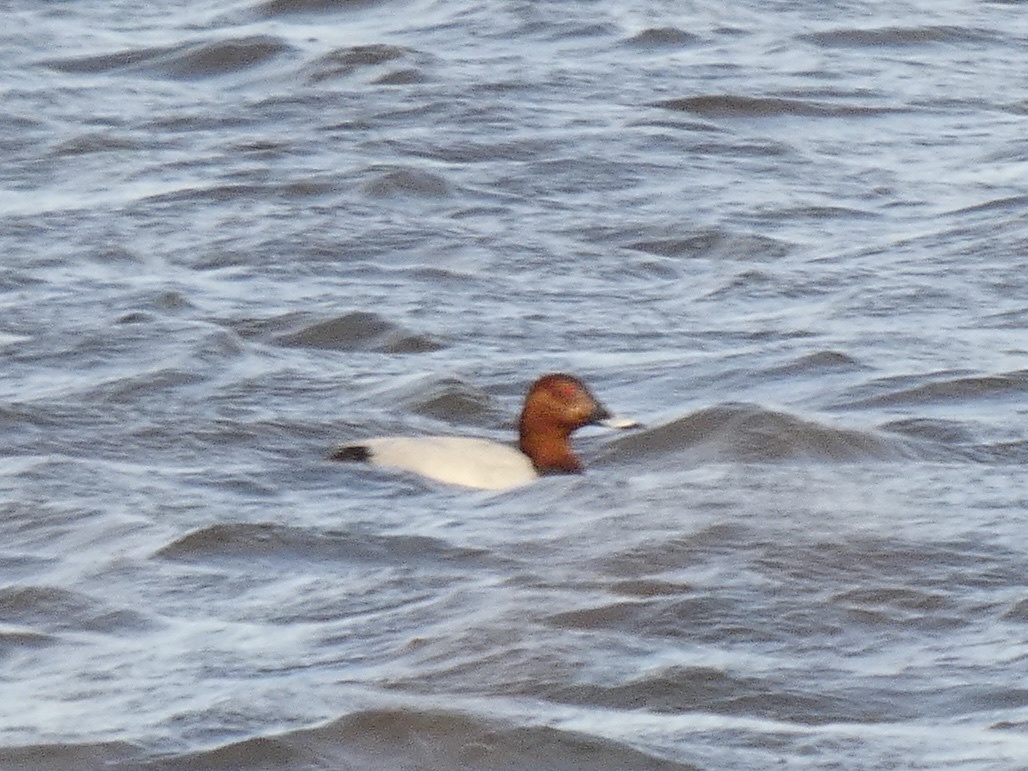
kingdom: Animalia
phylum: Chordata
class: Aves
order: Anseriformes
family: Anatidae
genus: Aythya
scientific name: Aythya ferina
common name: Common pochard
